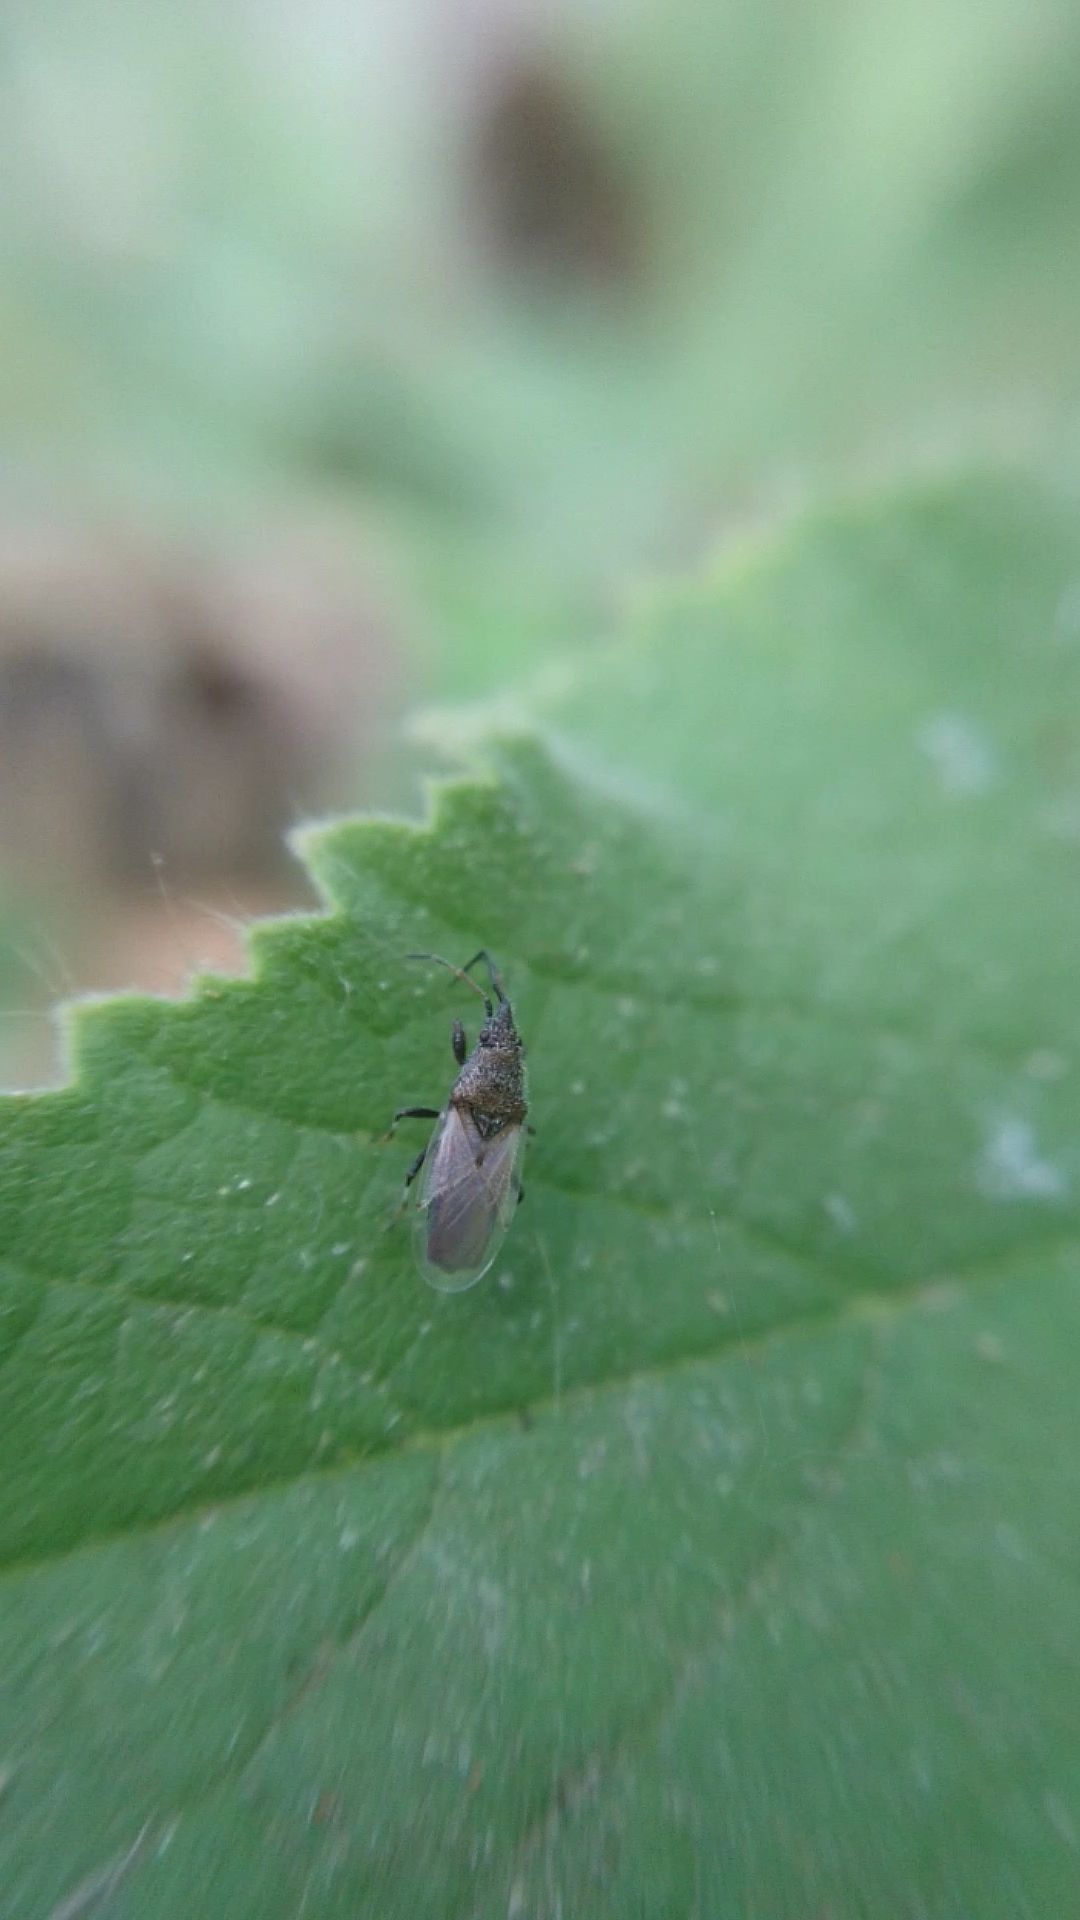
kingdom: Animalia
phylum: Arthropoda
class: Insecta
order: Hemiptera
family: Oxycarenidae
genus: Oxycarenus
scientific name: Oxycarenus hyalinipennis
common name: Cotton seed bug
